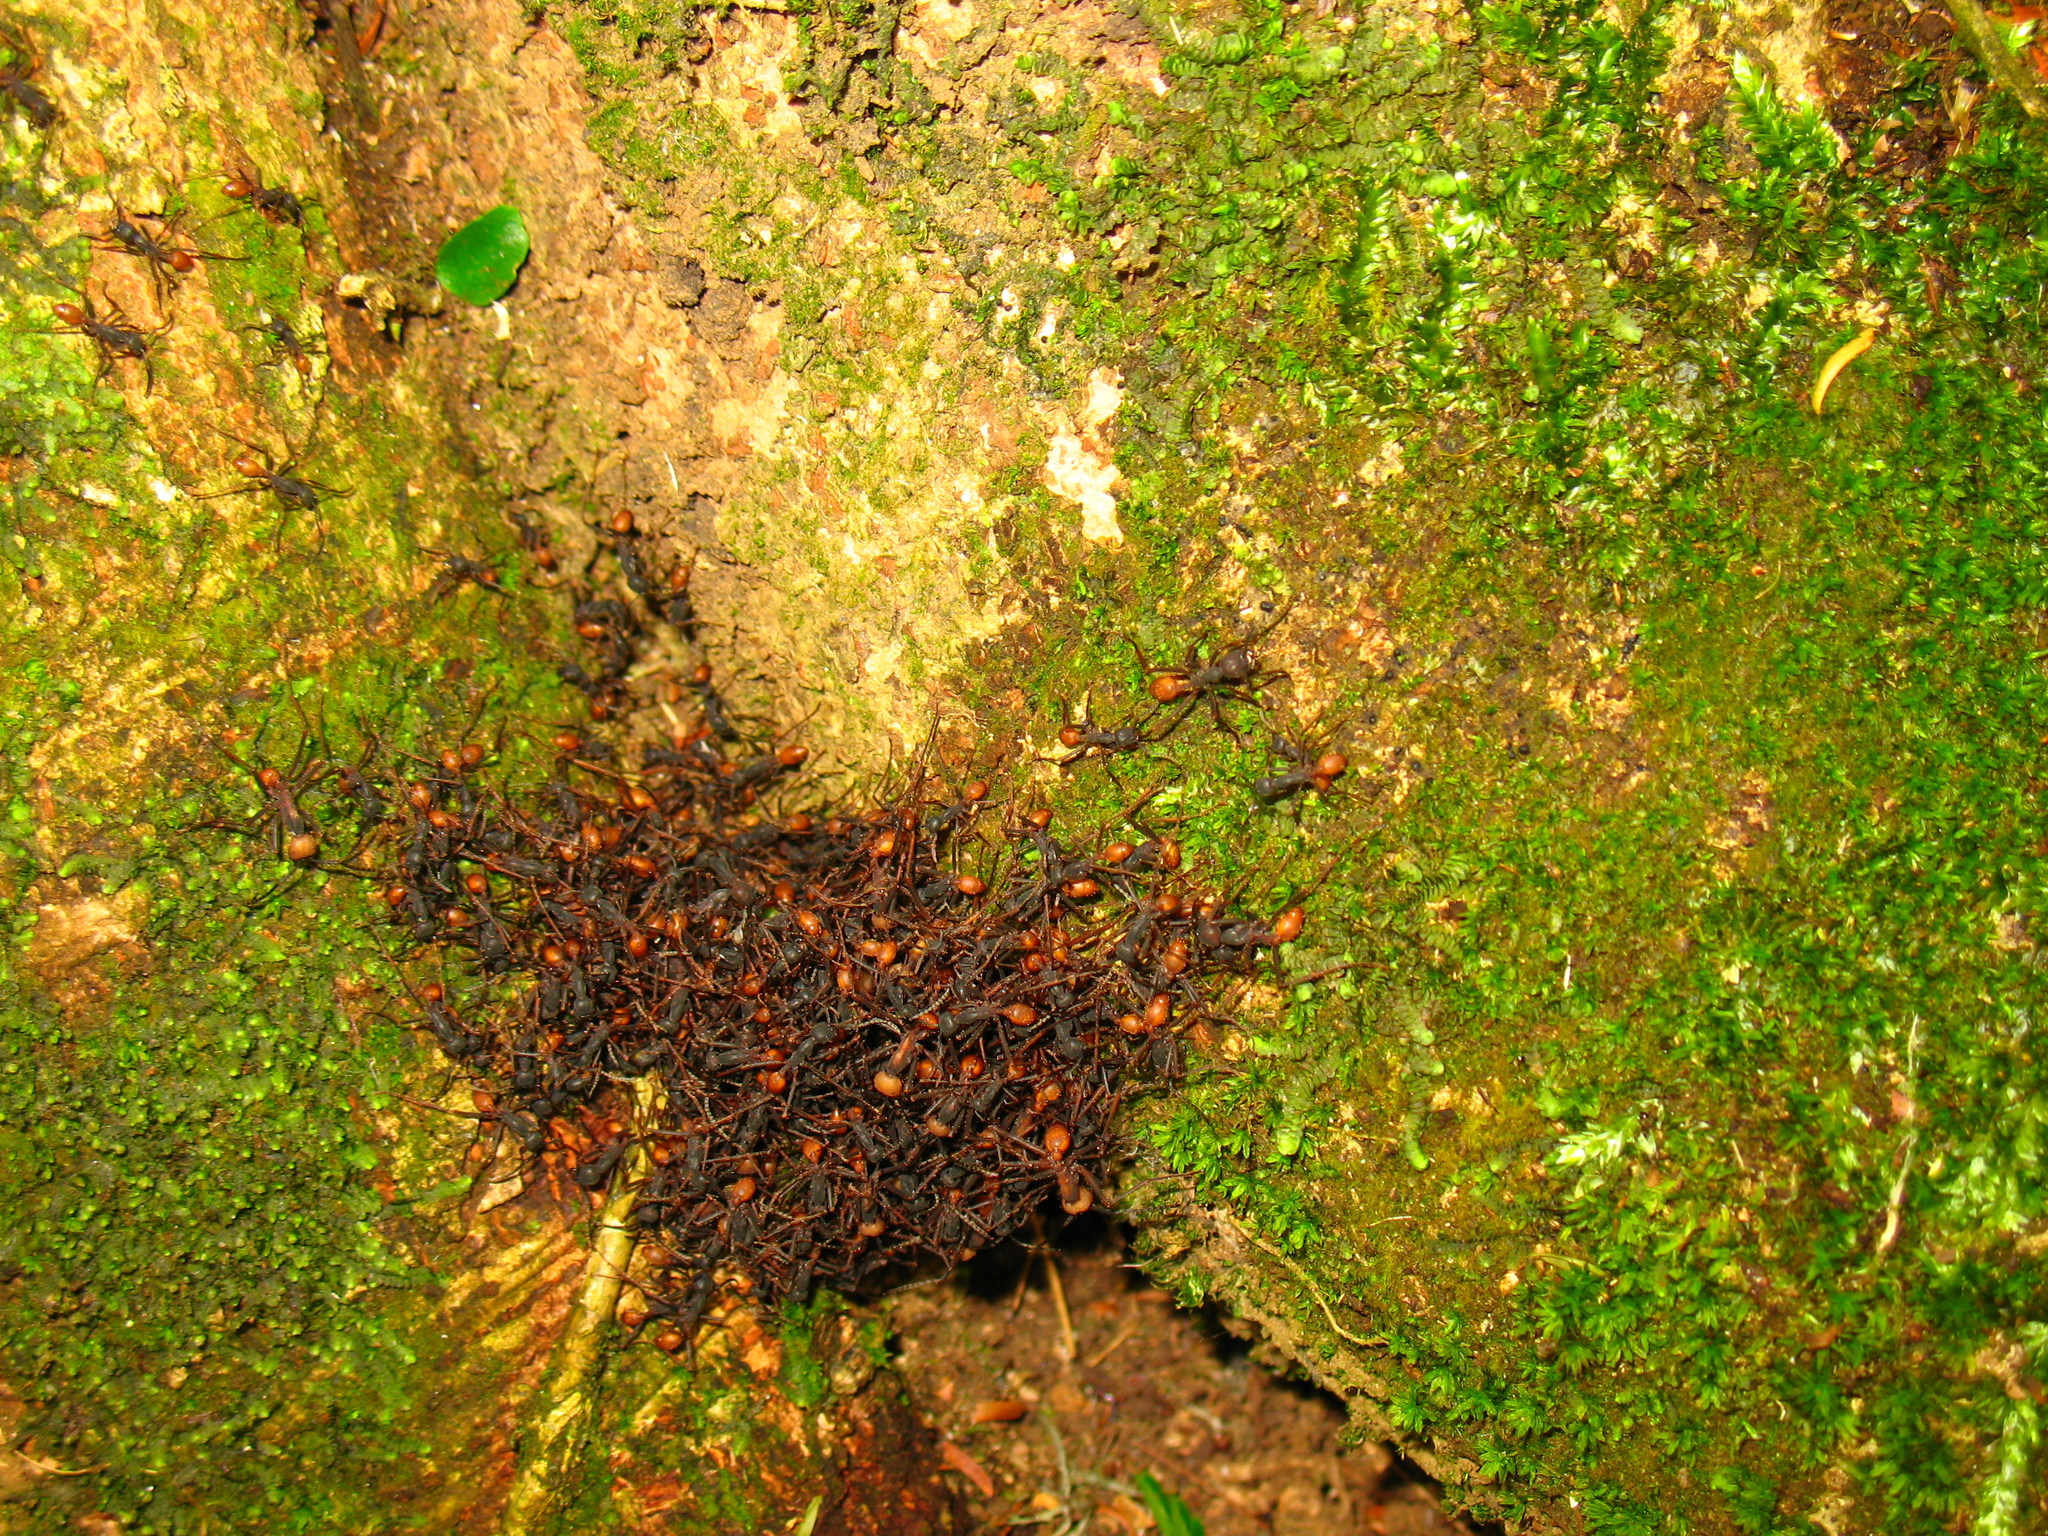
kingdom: Animalia
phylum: Arthropoda
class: Insecta
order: Hymenoptera
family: Formicidae
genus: Eciton
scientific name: Eciton burchellii
